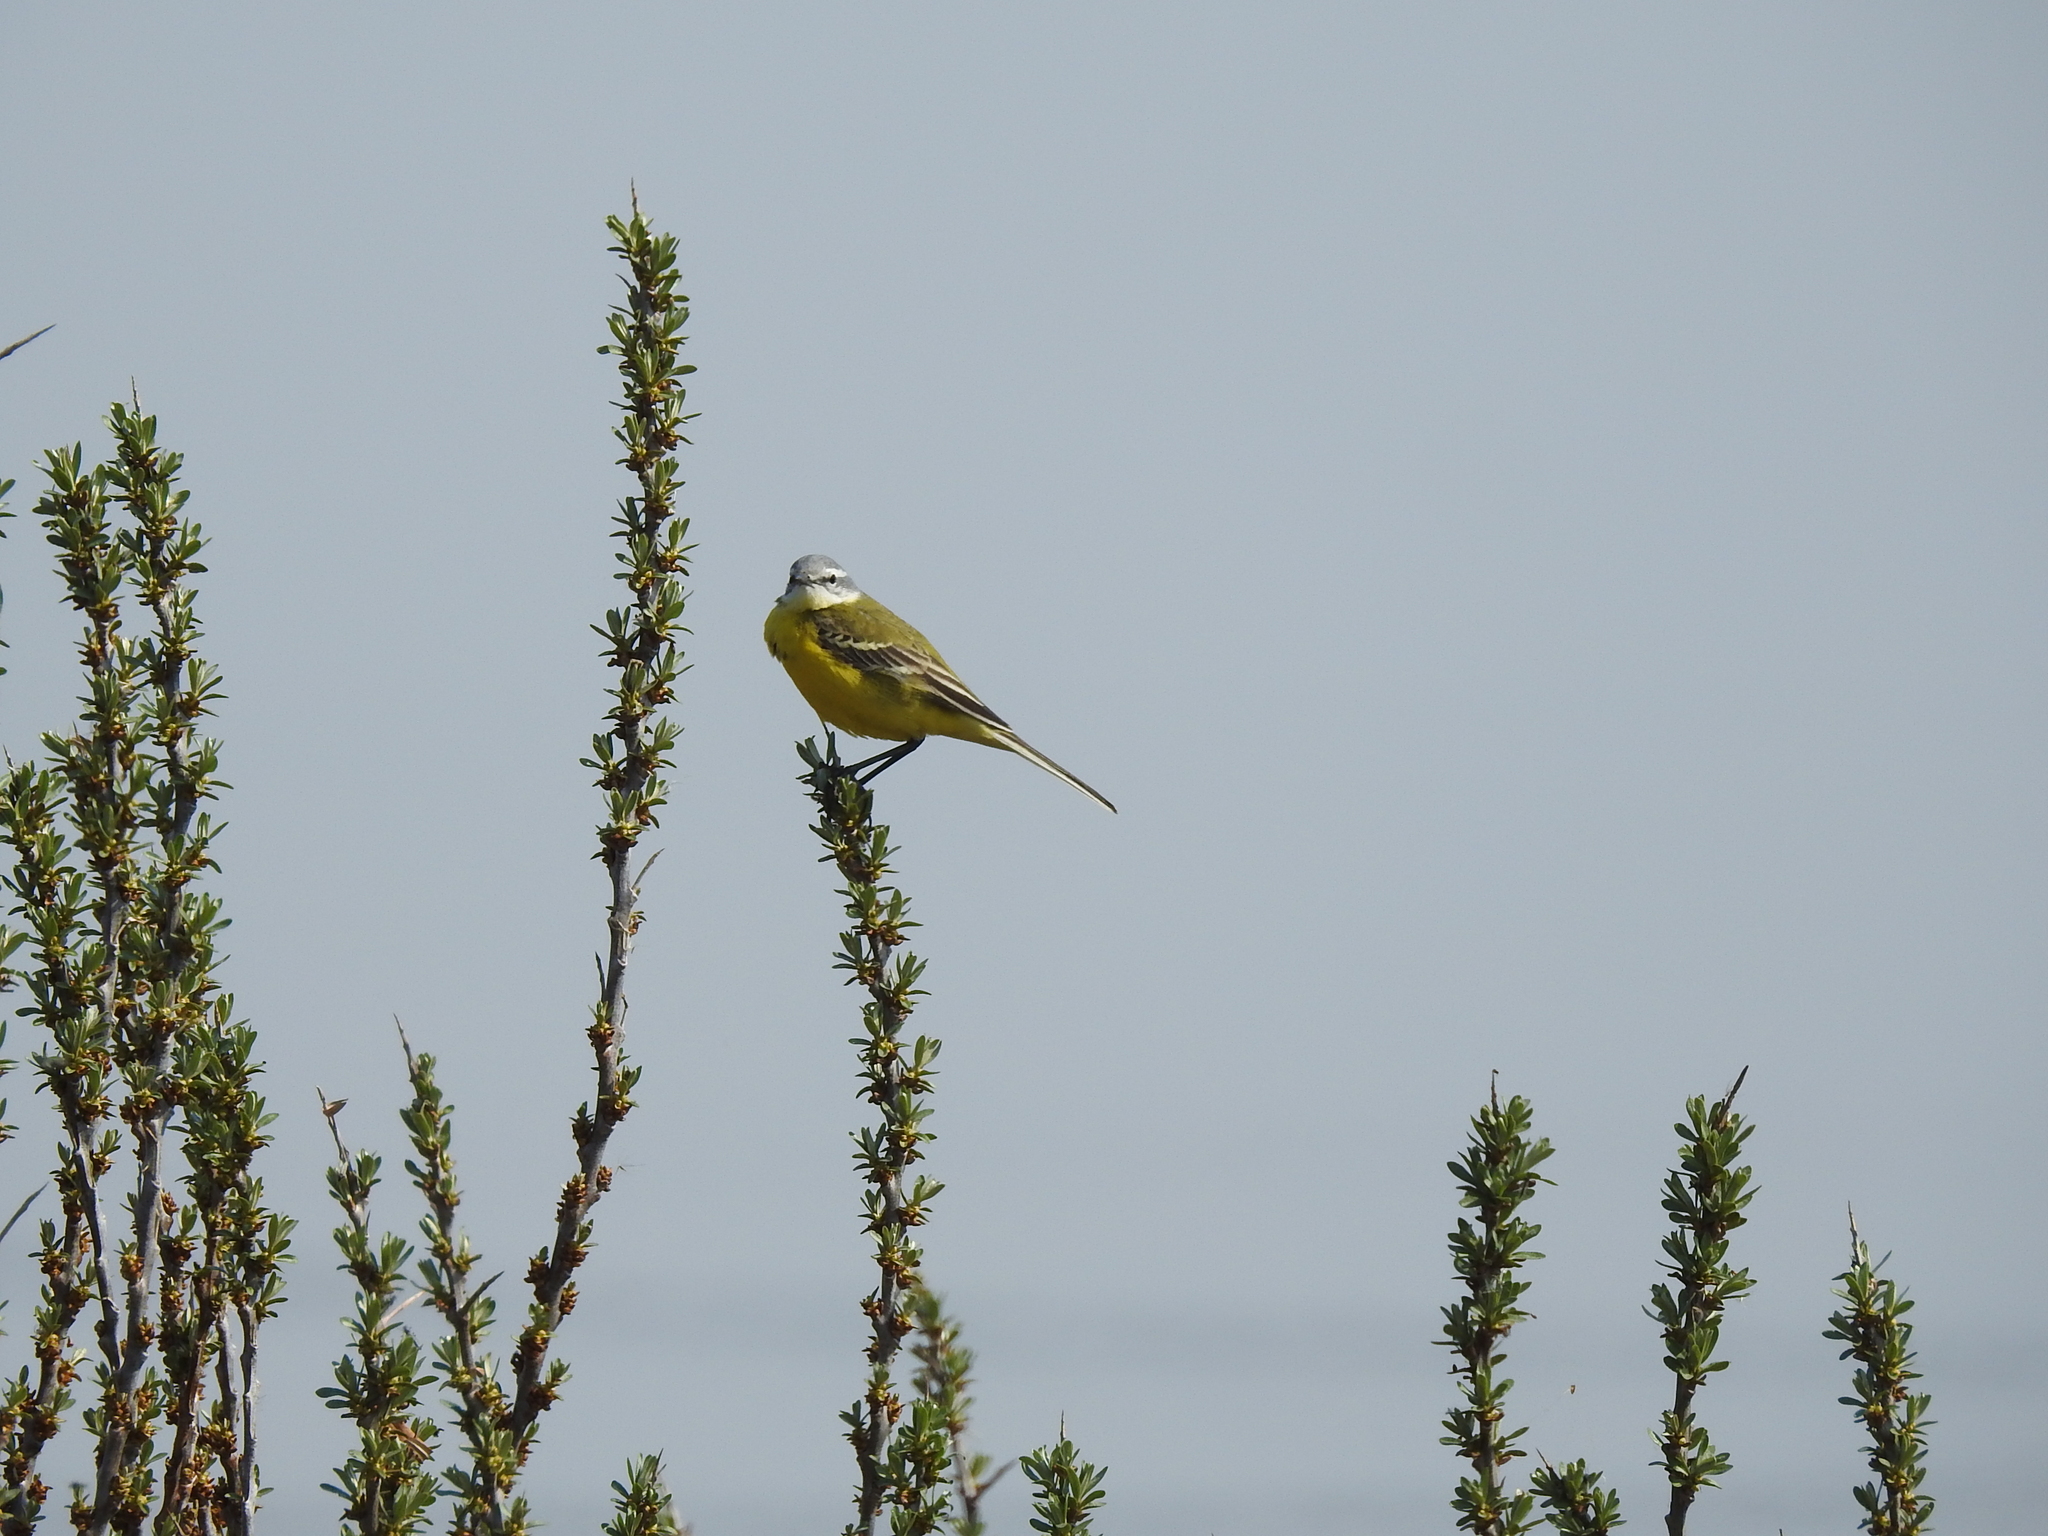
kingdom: Animalia
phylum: Chordata
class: Aves
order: Passeriformes
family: Motacillidae
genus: Motacilla
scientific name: Motacilla flava
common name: Western yellow wagtail
